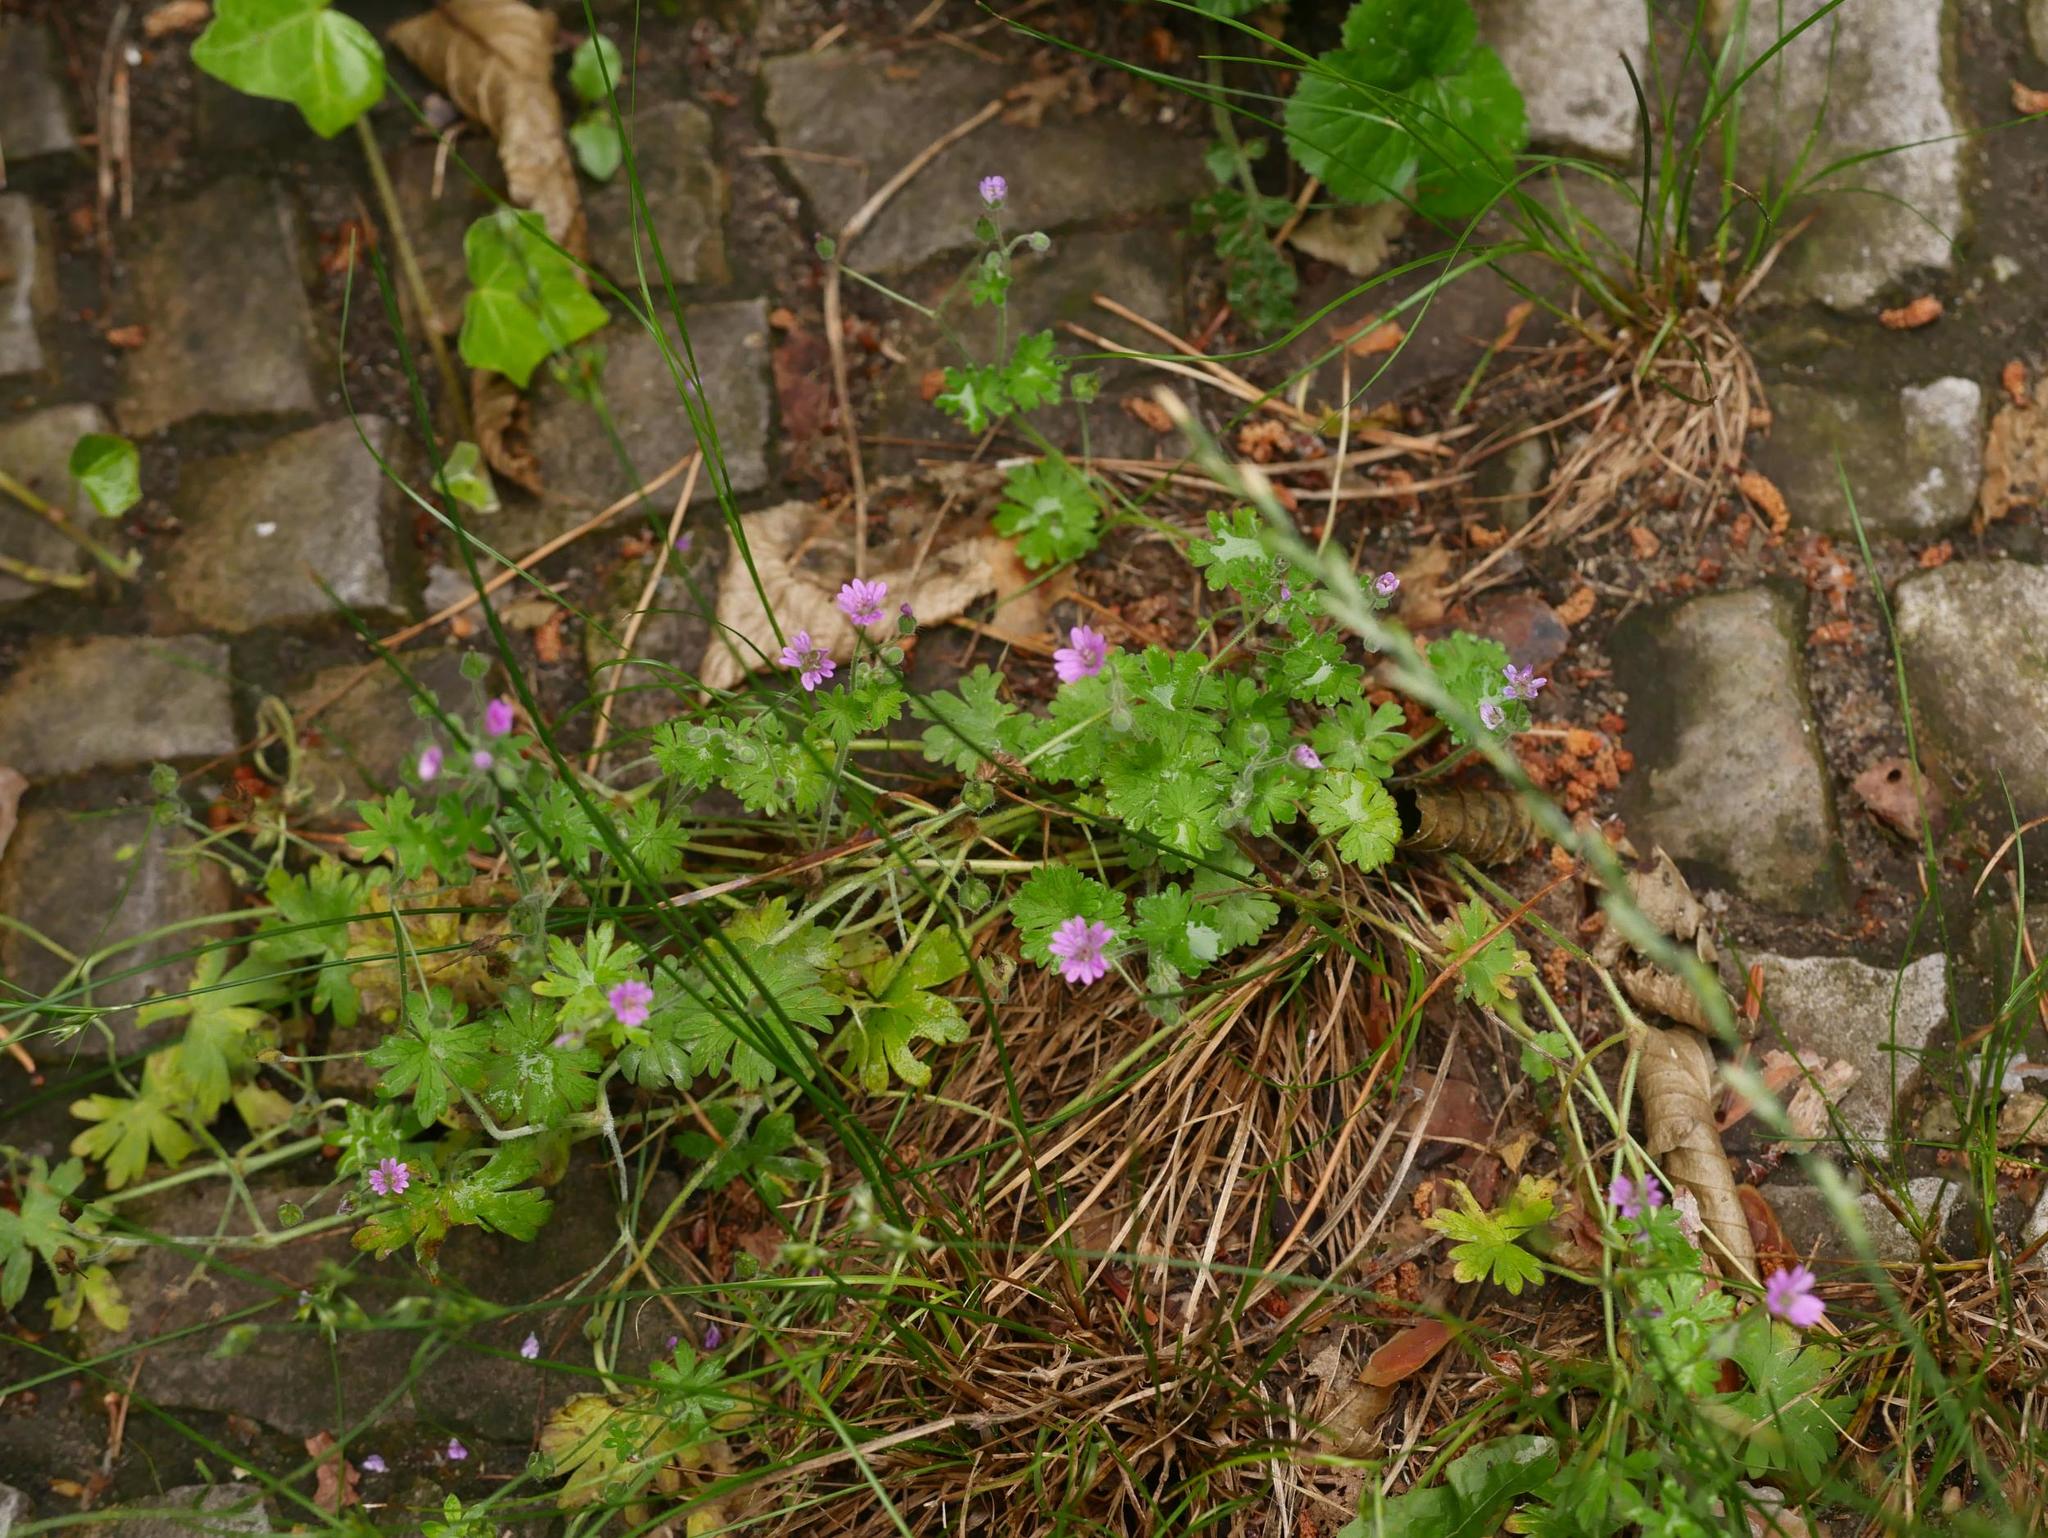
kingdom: Plantae
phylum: Tracheophyta
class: Magnoliopsida
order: Geraniales
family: Geraniaceae
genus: Geranium
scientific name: Geranium molle
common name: Dove's-foot crane's-bill
